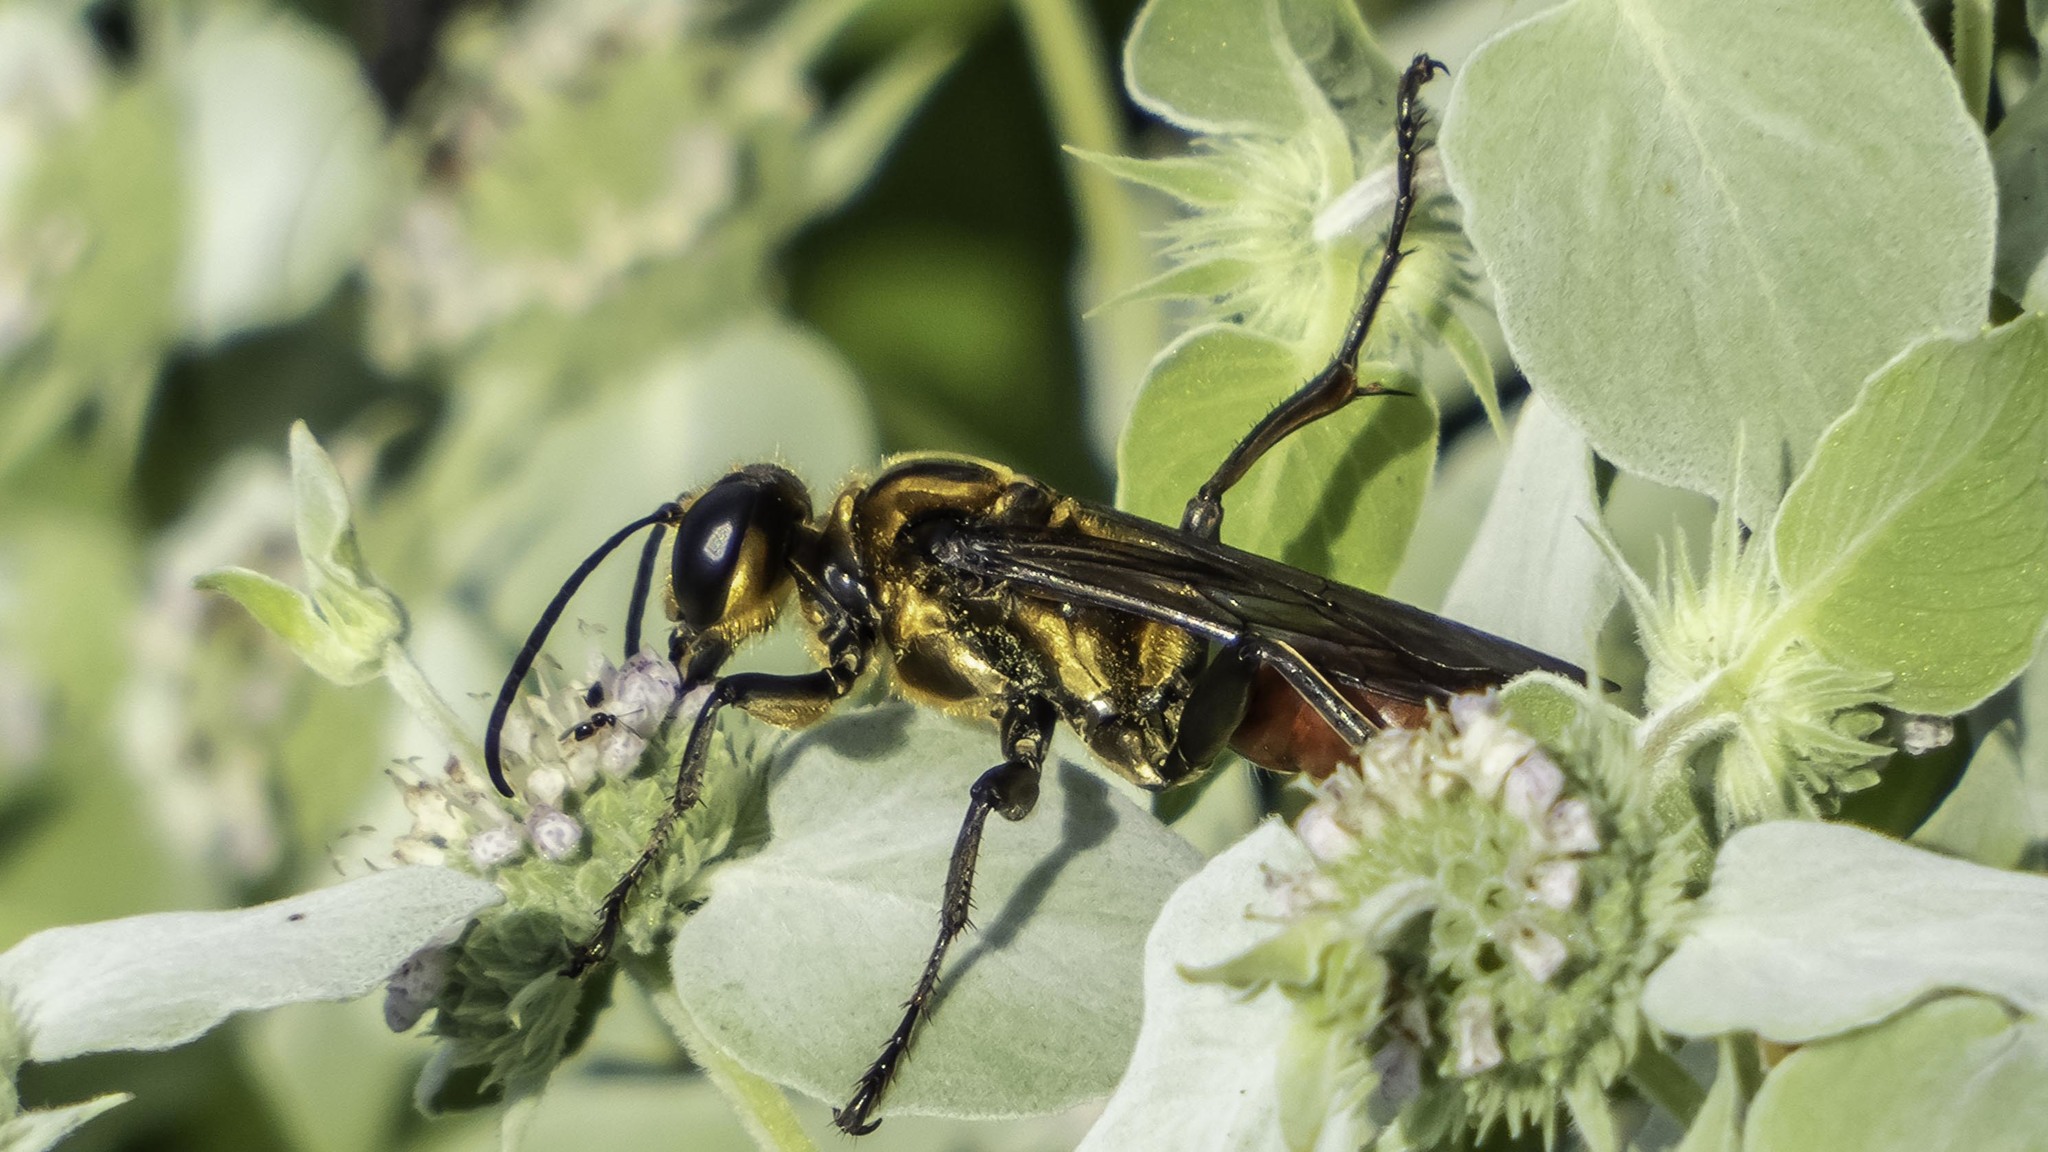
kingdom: Animalia
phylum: Arthropoda
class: Insecta
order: Hymenoptera
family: Sphecidae
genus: Sphex
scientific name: Sphex habenus
